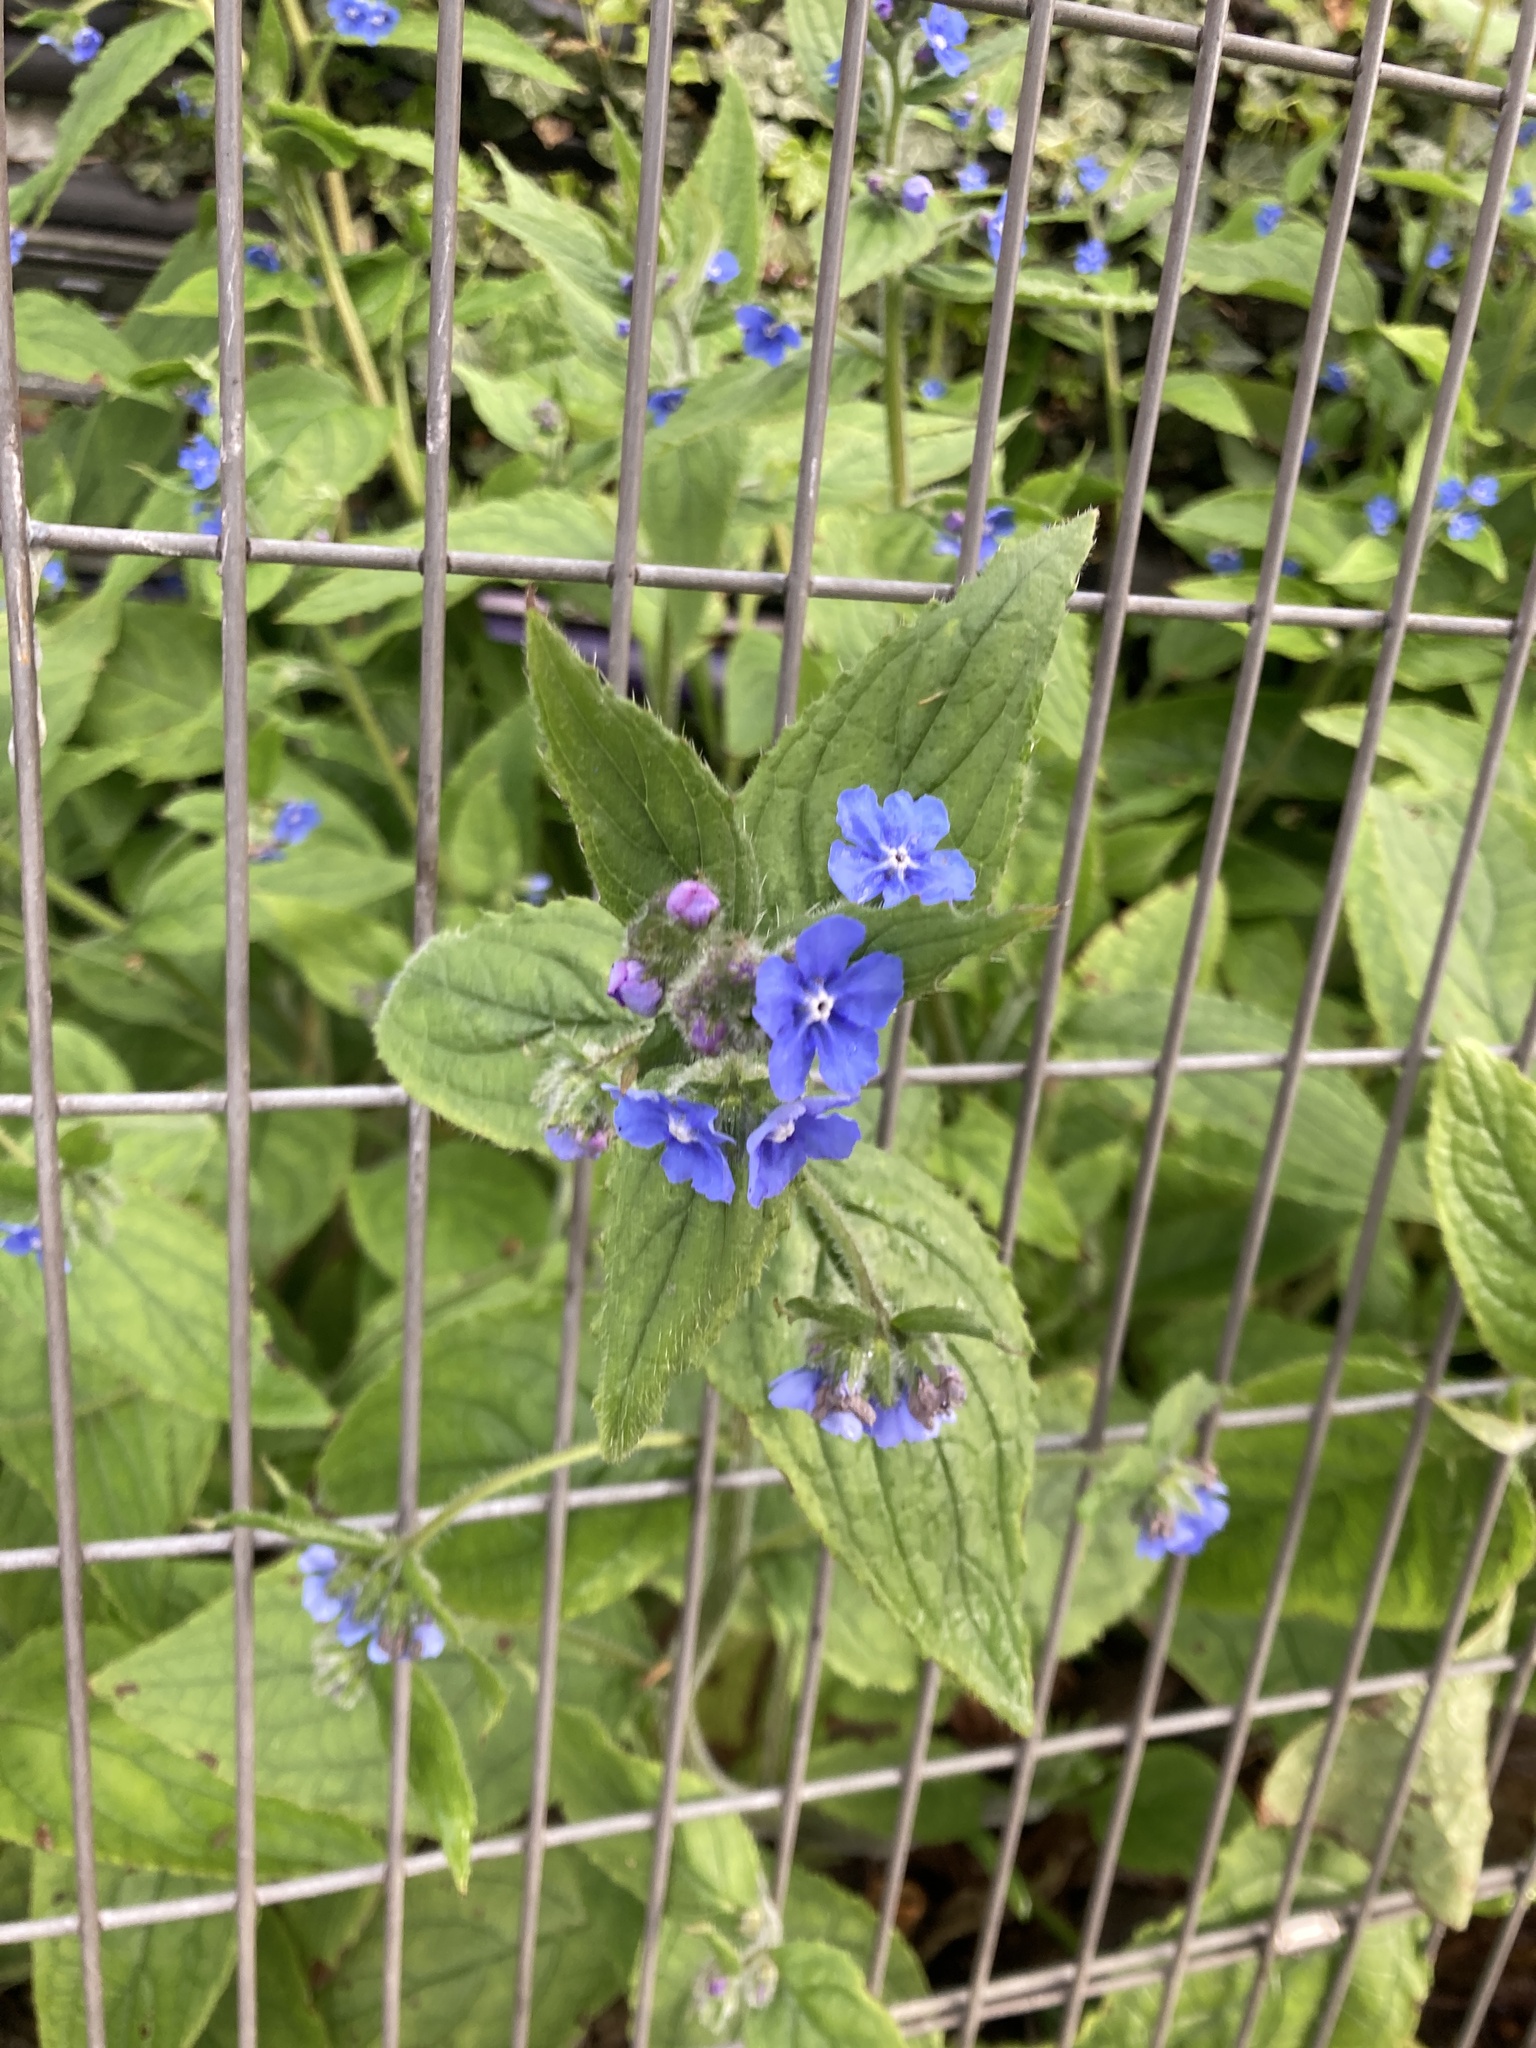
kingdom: Plantae
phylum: Tracheophyta
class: Magnoliopsida
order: Boraginales
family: Boraginaceae
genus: Pentaglottis
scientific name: Pentaglottis sempervirens
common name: Green alkanet
